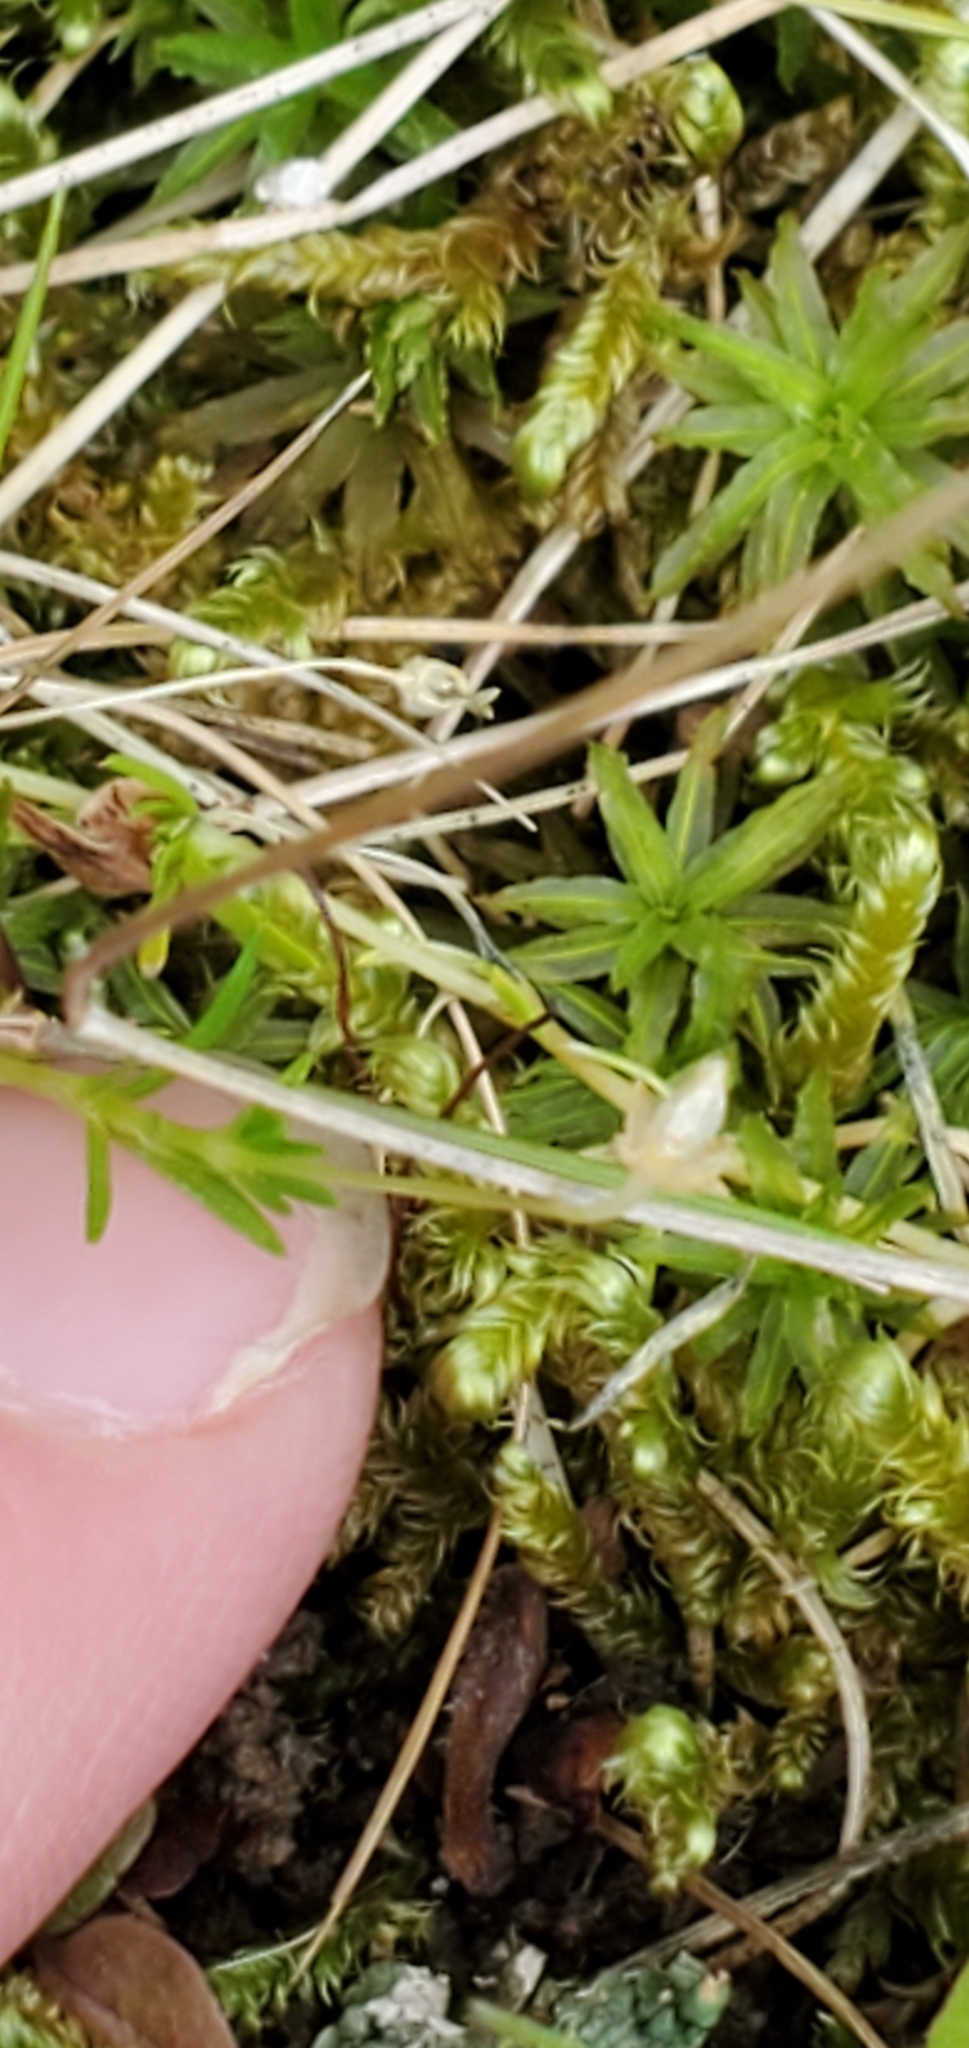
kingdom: Plantae
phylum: Tracheophyta
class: Magnoliopsida
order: Caryophyllales
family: Caryophyllaceae
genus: Sagina
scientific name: Sagina procumbens
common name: Procumbent pearlwort
